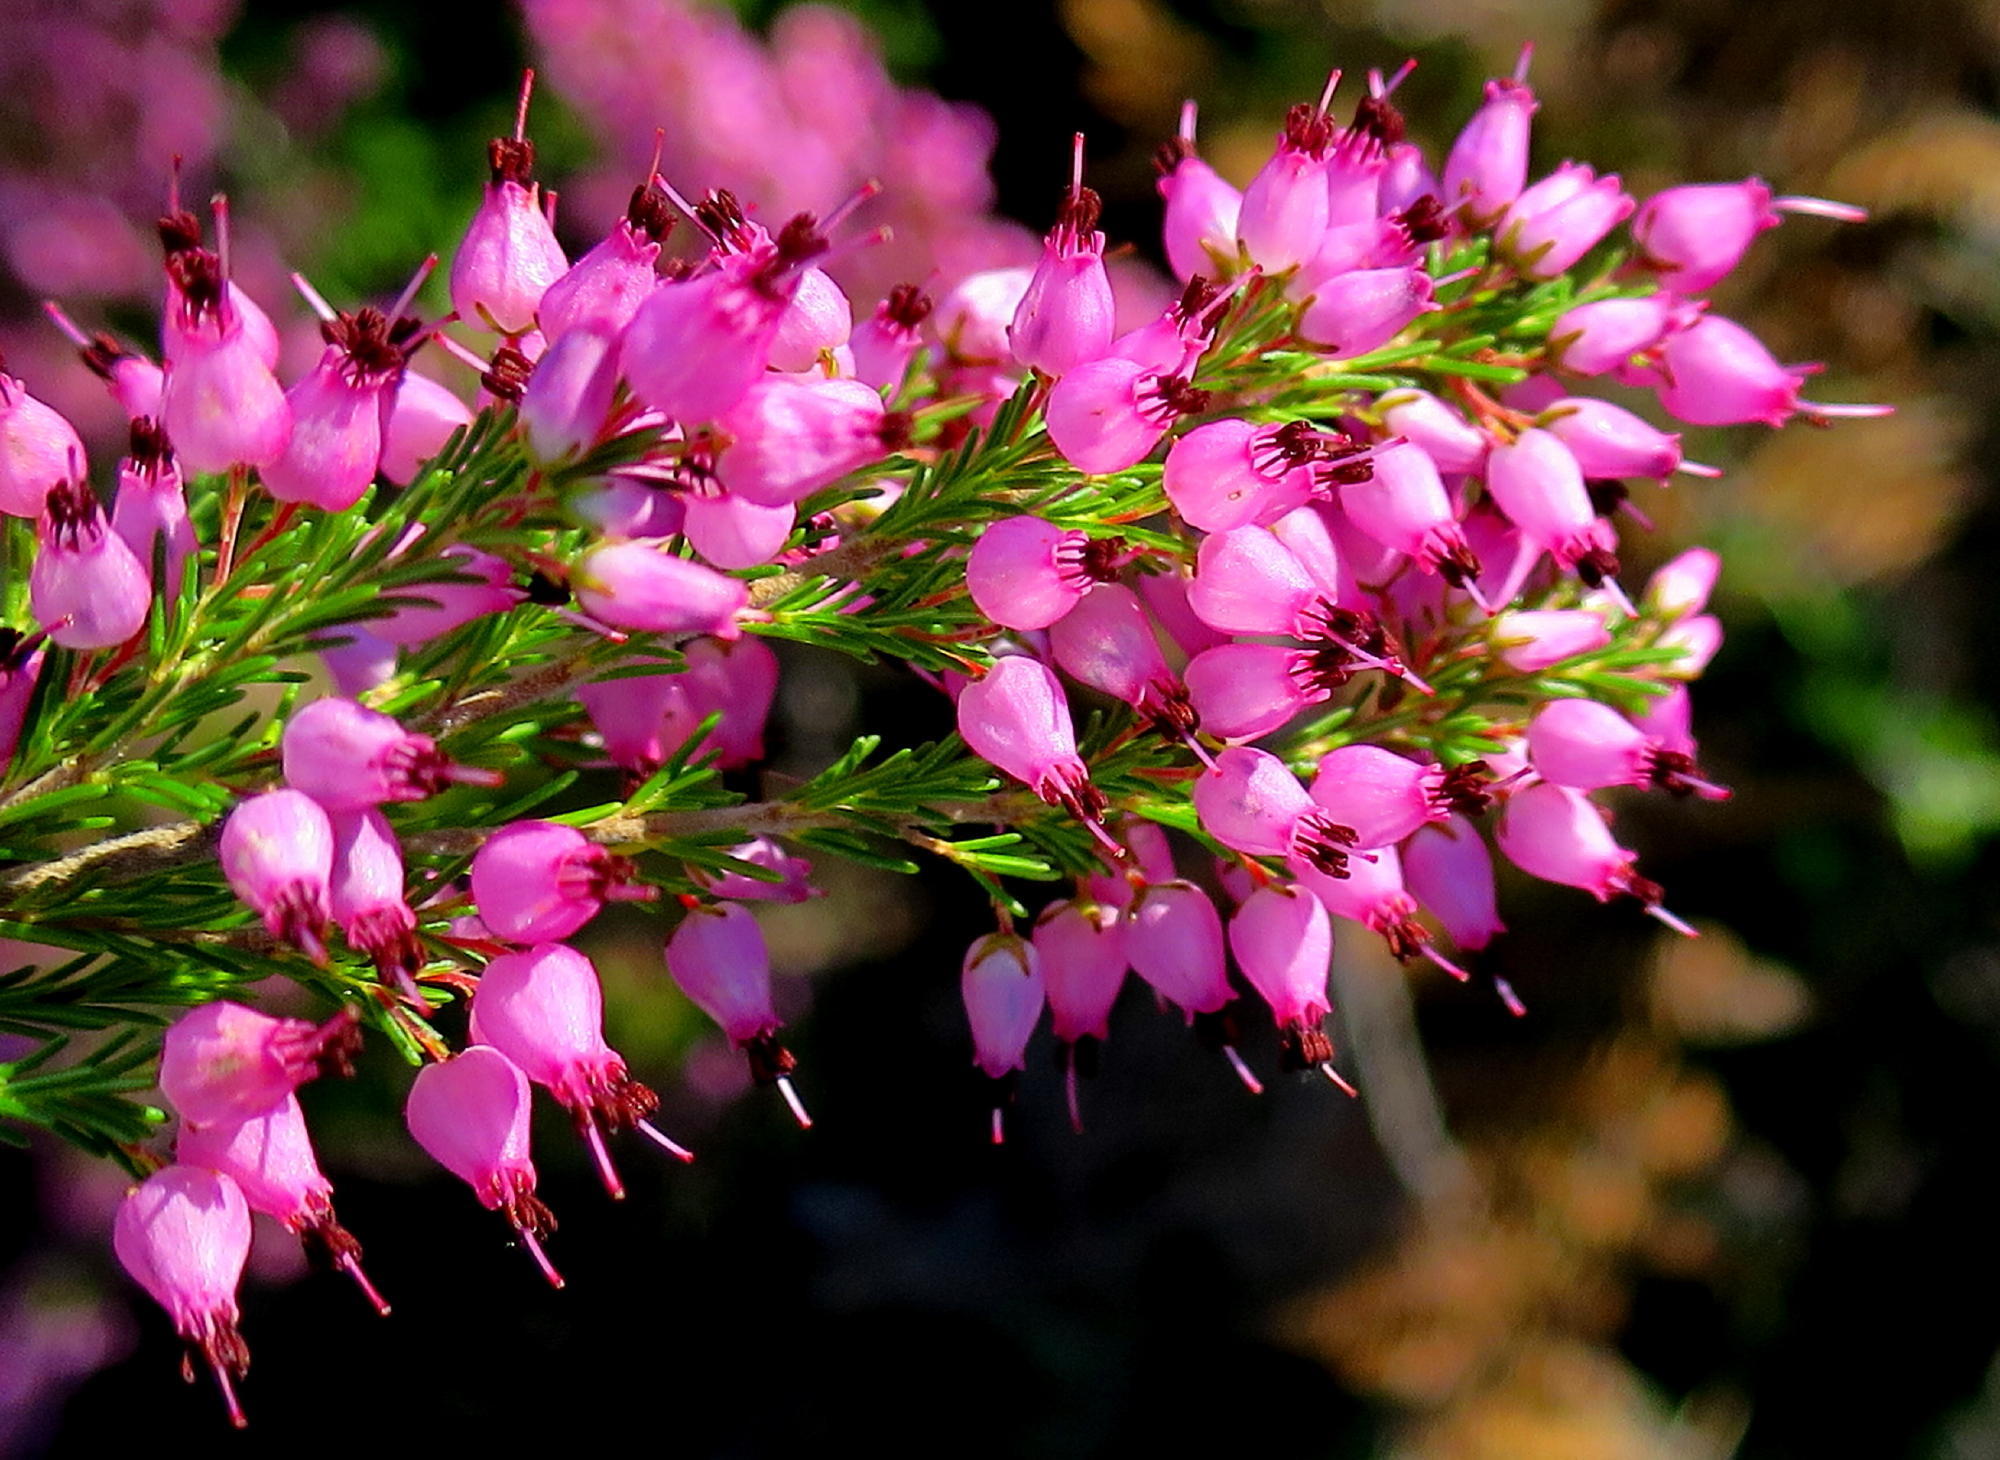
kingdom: Plantae
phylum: Tracheophyta
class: Magnoliopsida
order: Ericales
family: Ericaceae
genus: Erica
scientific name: Erica nutans
